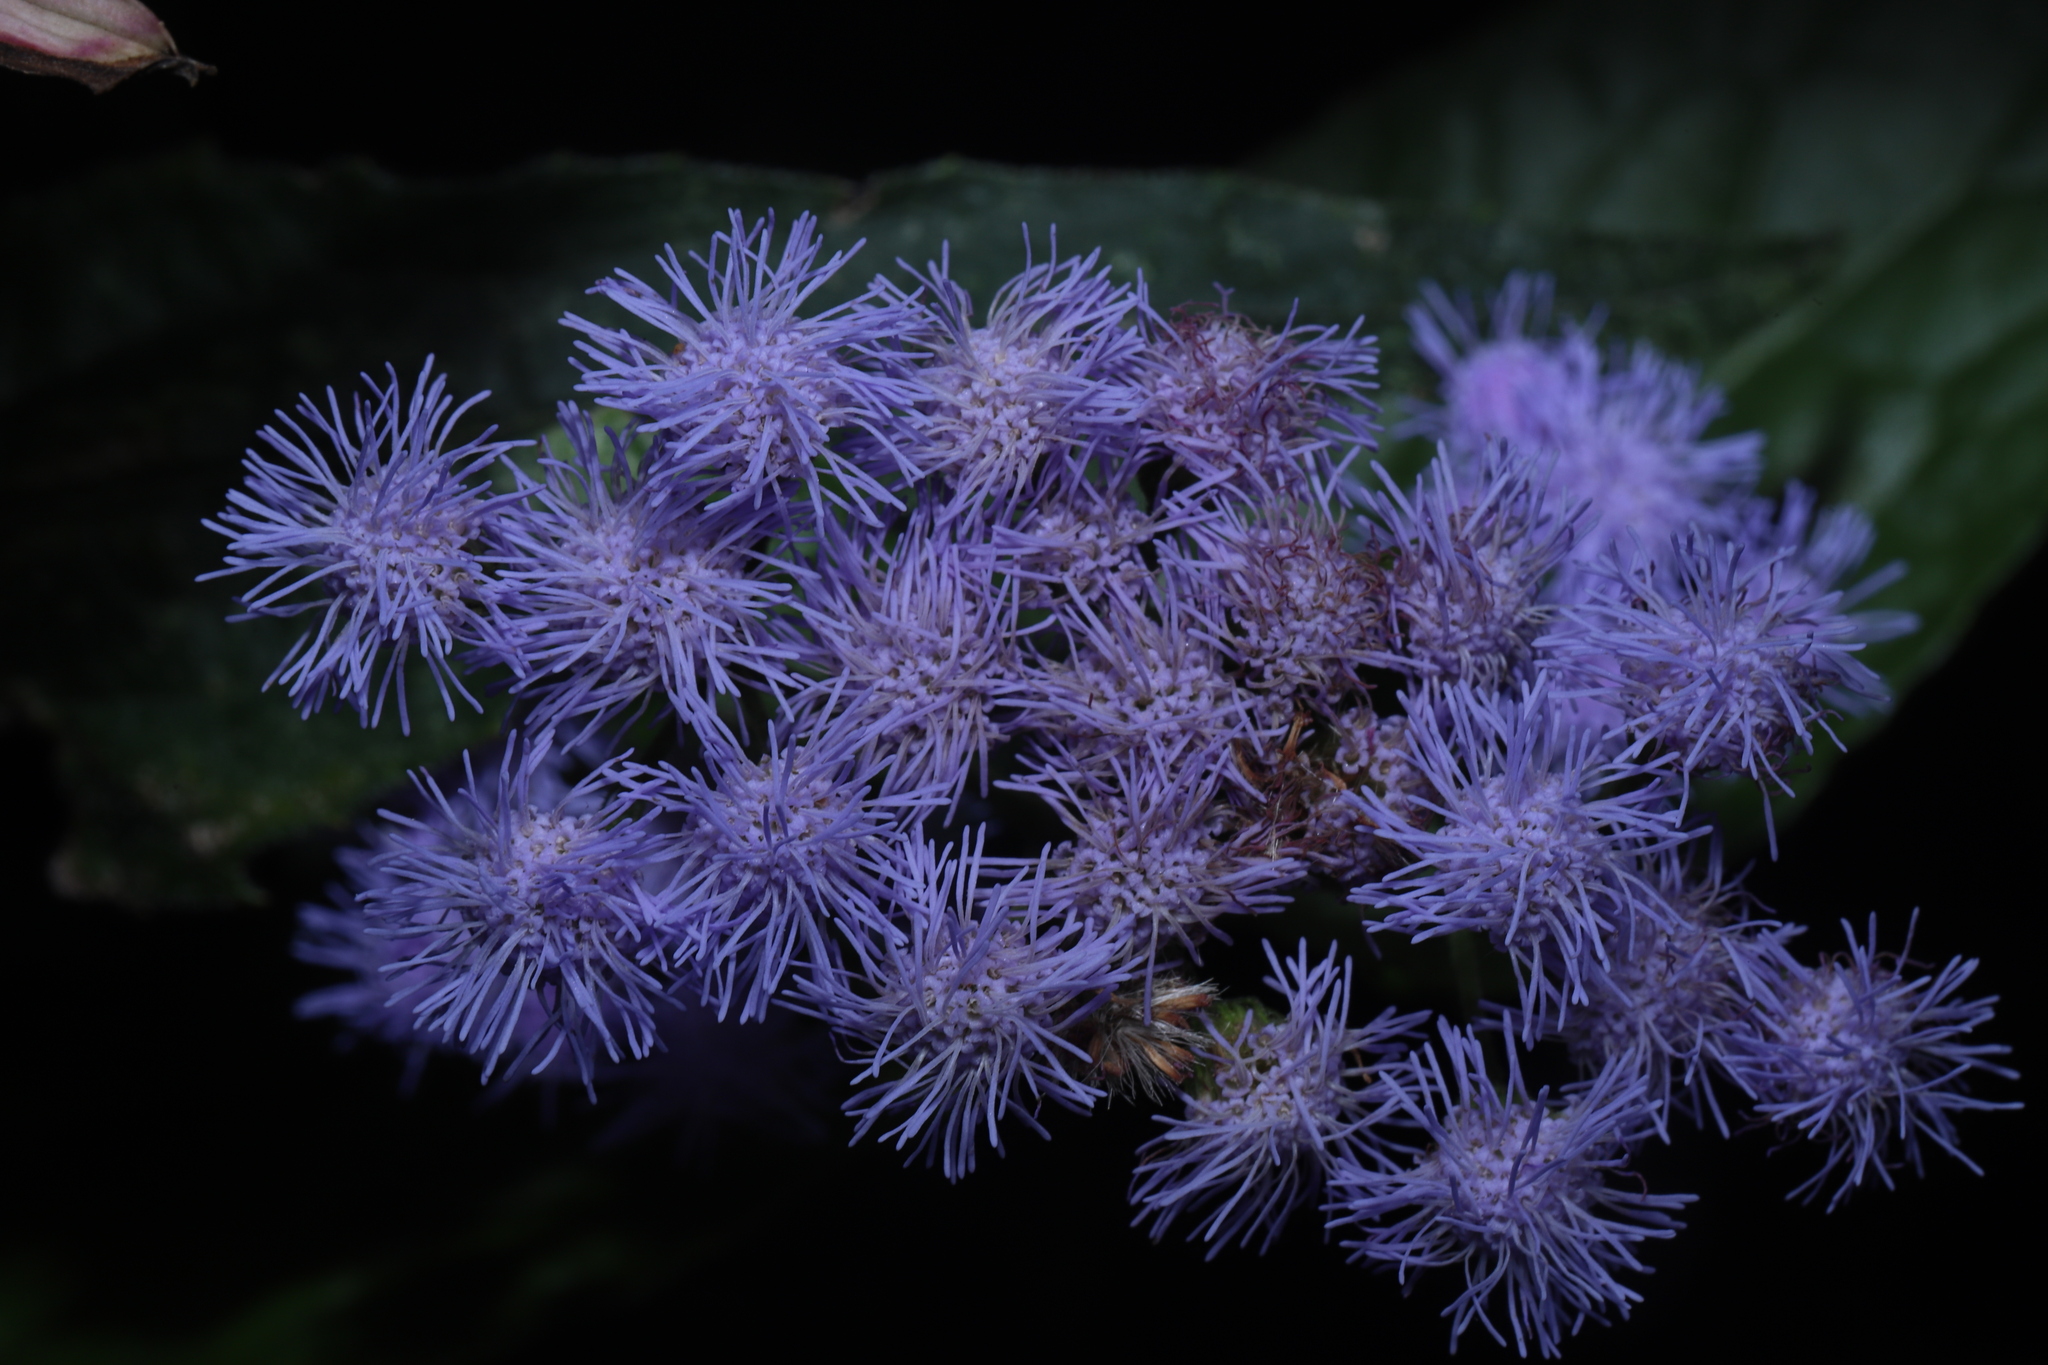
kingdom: Plantae
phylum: Tracheophyta
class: Magnoliopsida
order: Asterales
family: Asteraceae
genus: Conoclinium
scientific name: Conoclinium coelestinum
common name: Blue mistflower
